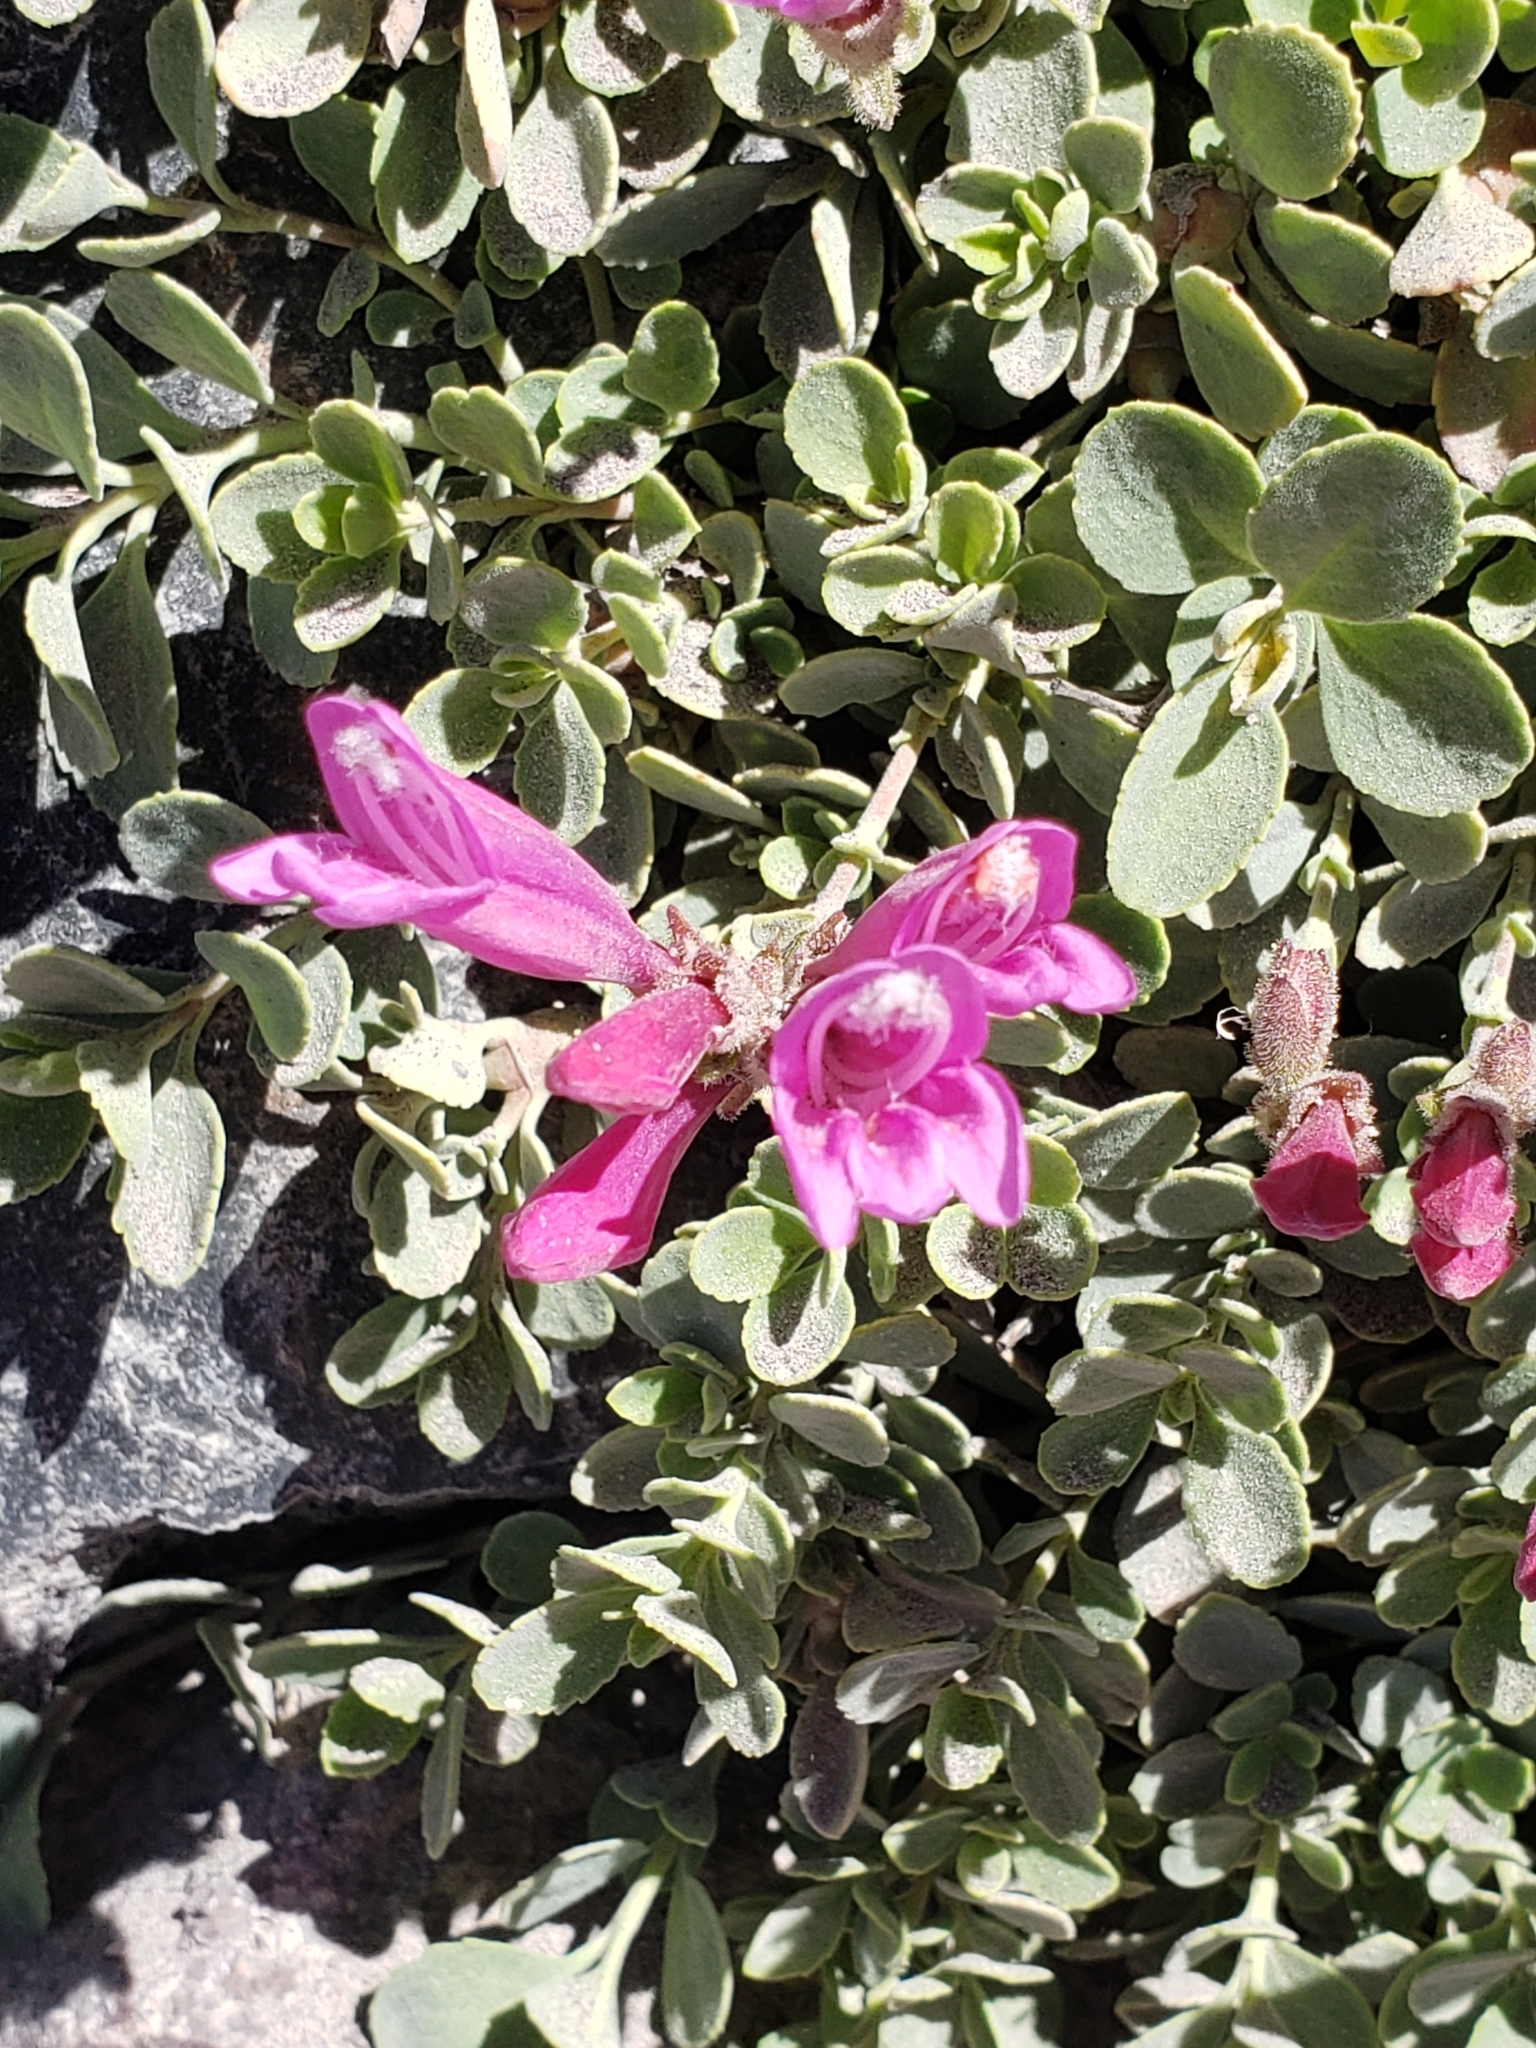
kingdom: Plantae
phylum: Tracheophyta
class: Magnoliopsida
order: Lamiales
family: Plantaginaceae
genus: Penstemon
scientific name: Penstemon rupicola
